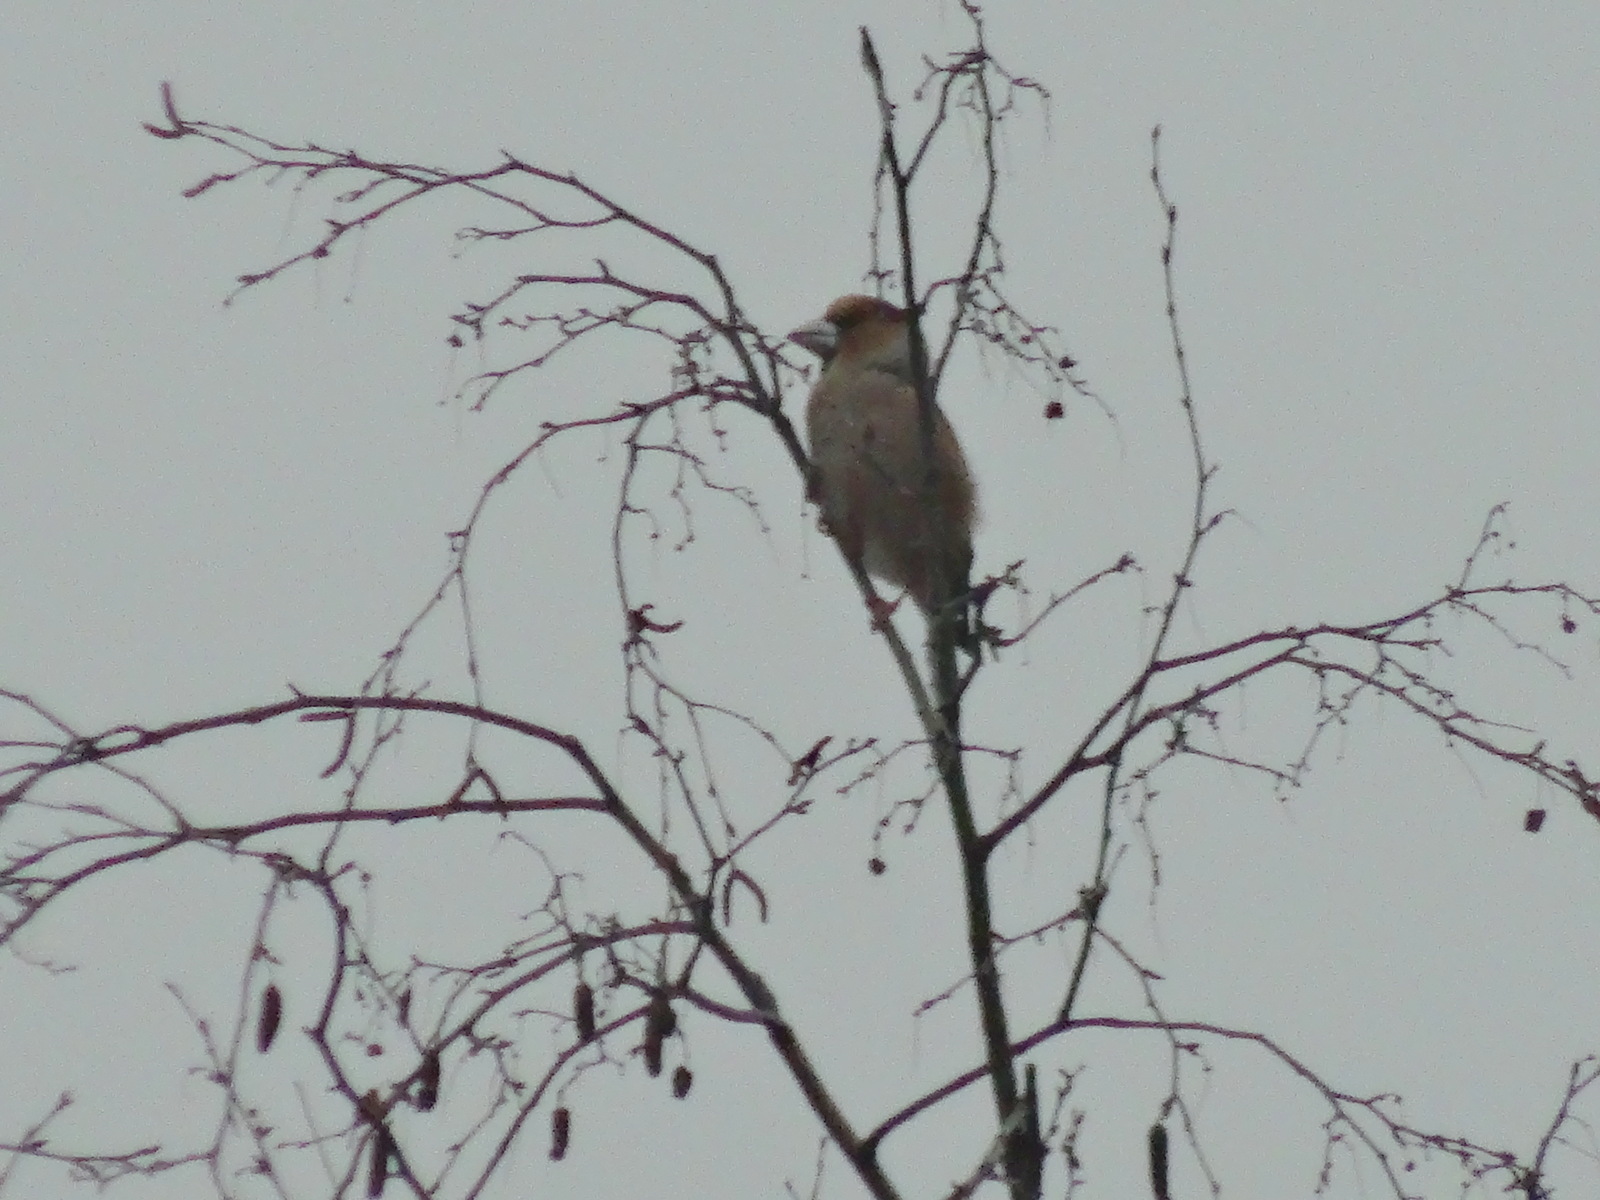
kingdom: Animalia
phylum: Chordata
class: Aves
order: Passeriformes
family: Fringillidae
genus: Coccothraustes
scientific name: Coccothraustes coccothraustes
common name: Hawfinch
